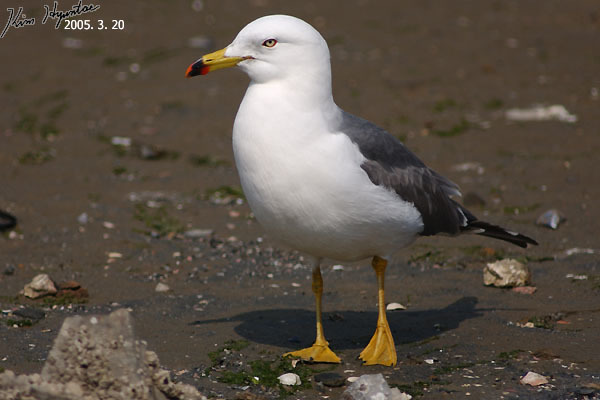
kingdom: Animalia
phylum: Chordata
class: Aves
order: Charadriiformes
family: Laridae
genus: Larus
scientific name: Larus crassirostris
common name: Black-tailed gull
